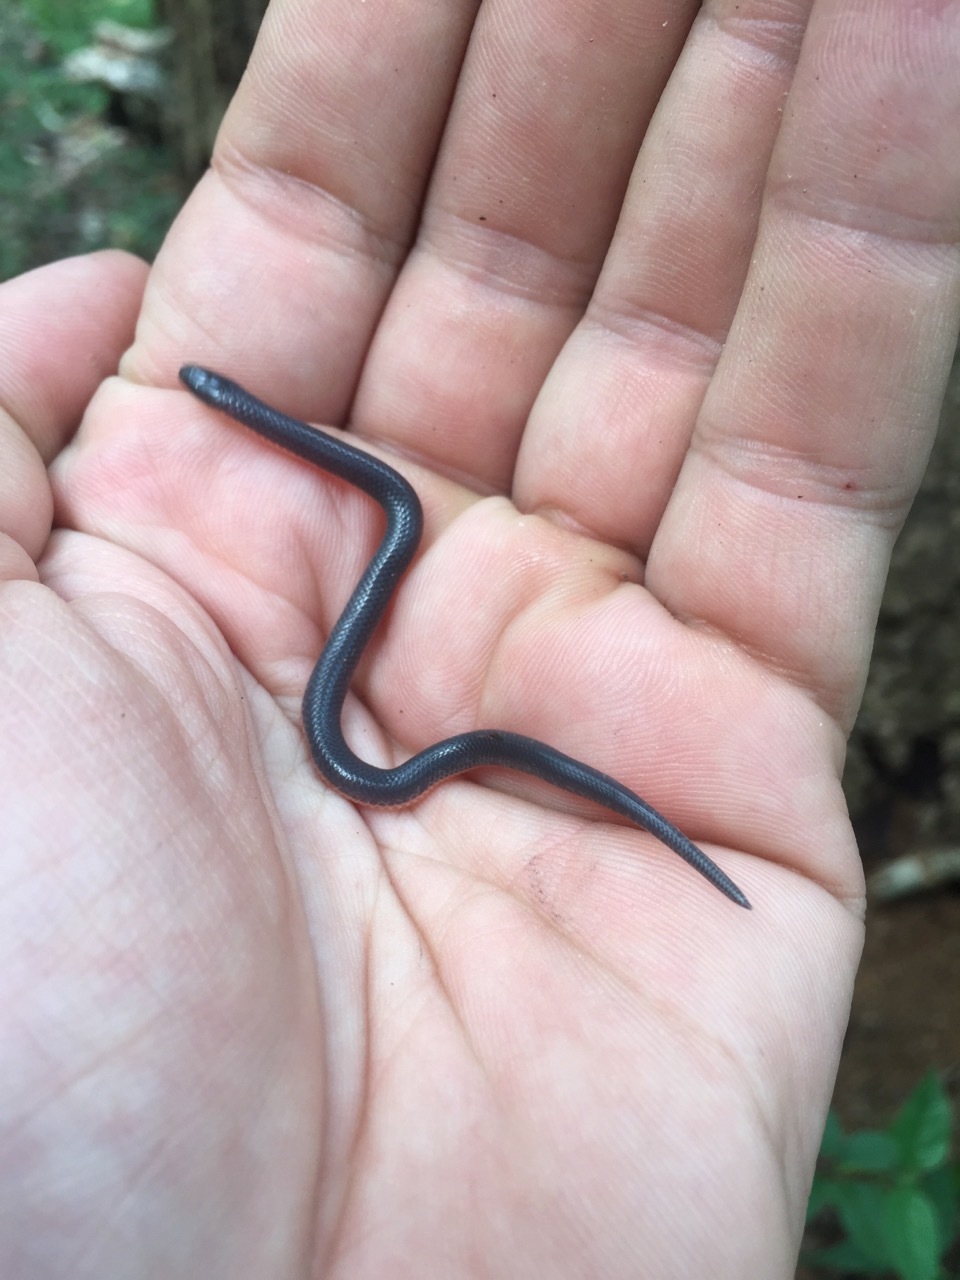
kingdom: Animalia
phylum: Chordata
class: Squamata
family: Colubridae
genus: Carphophis
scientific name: Carphophis amoenus
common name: Eastern worm snake
